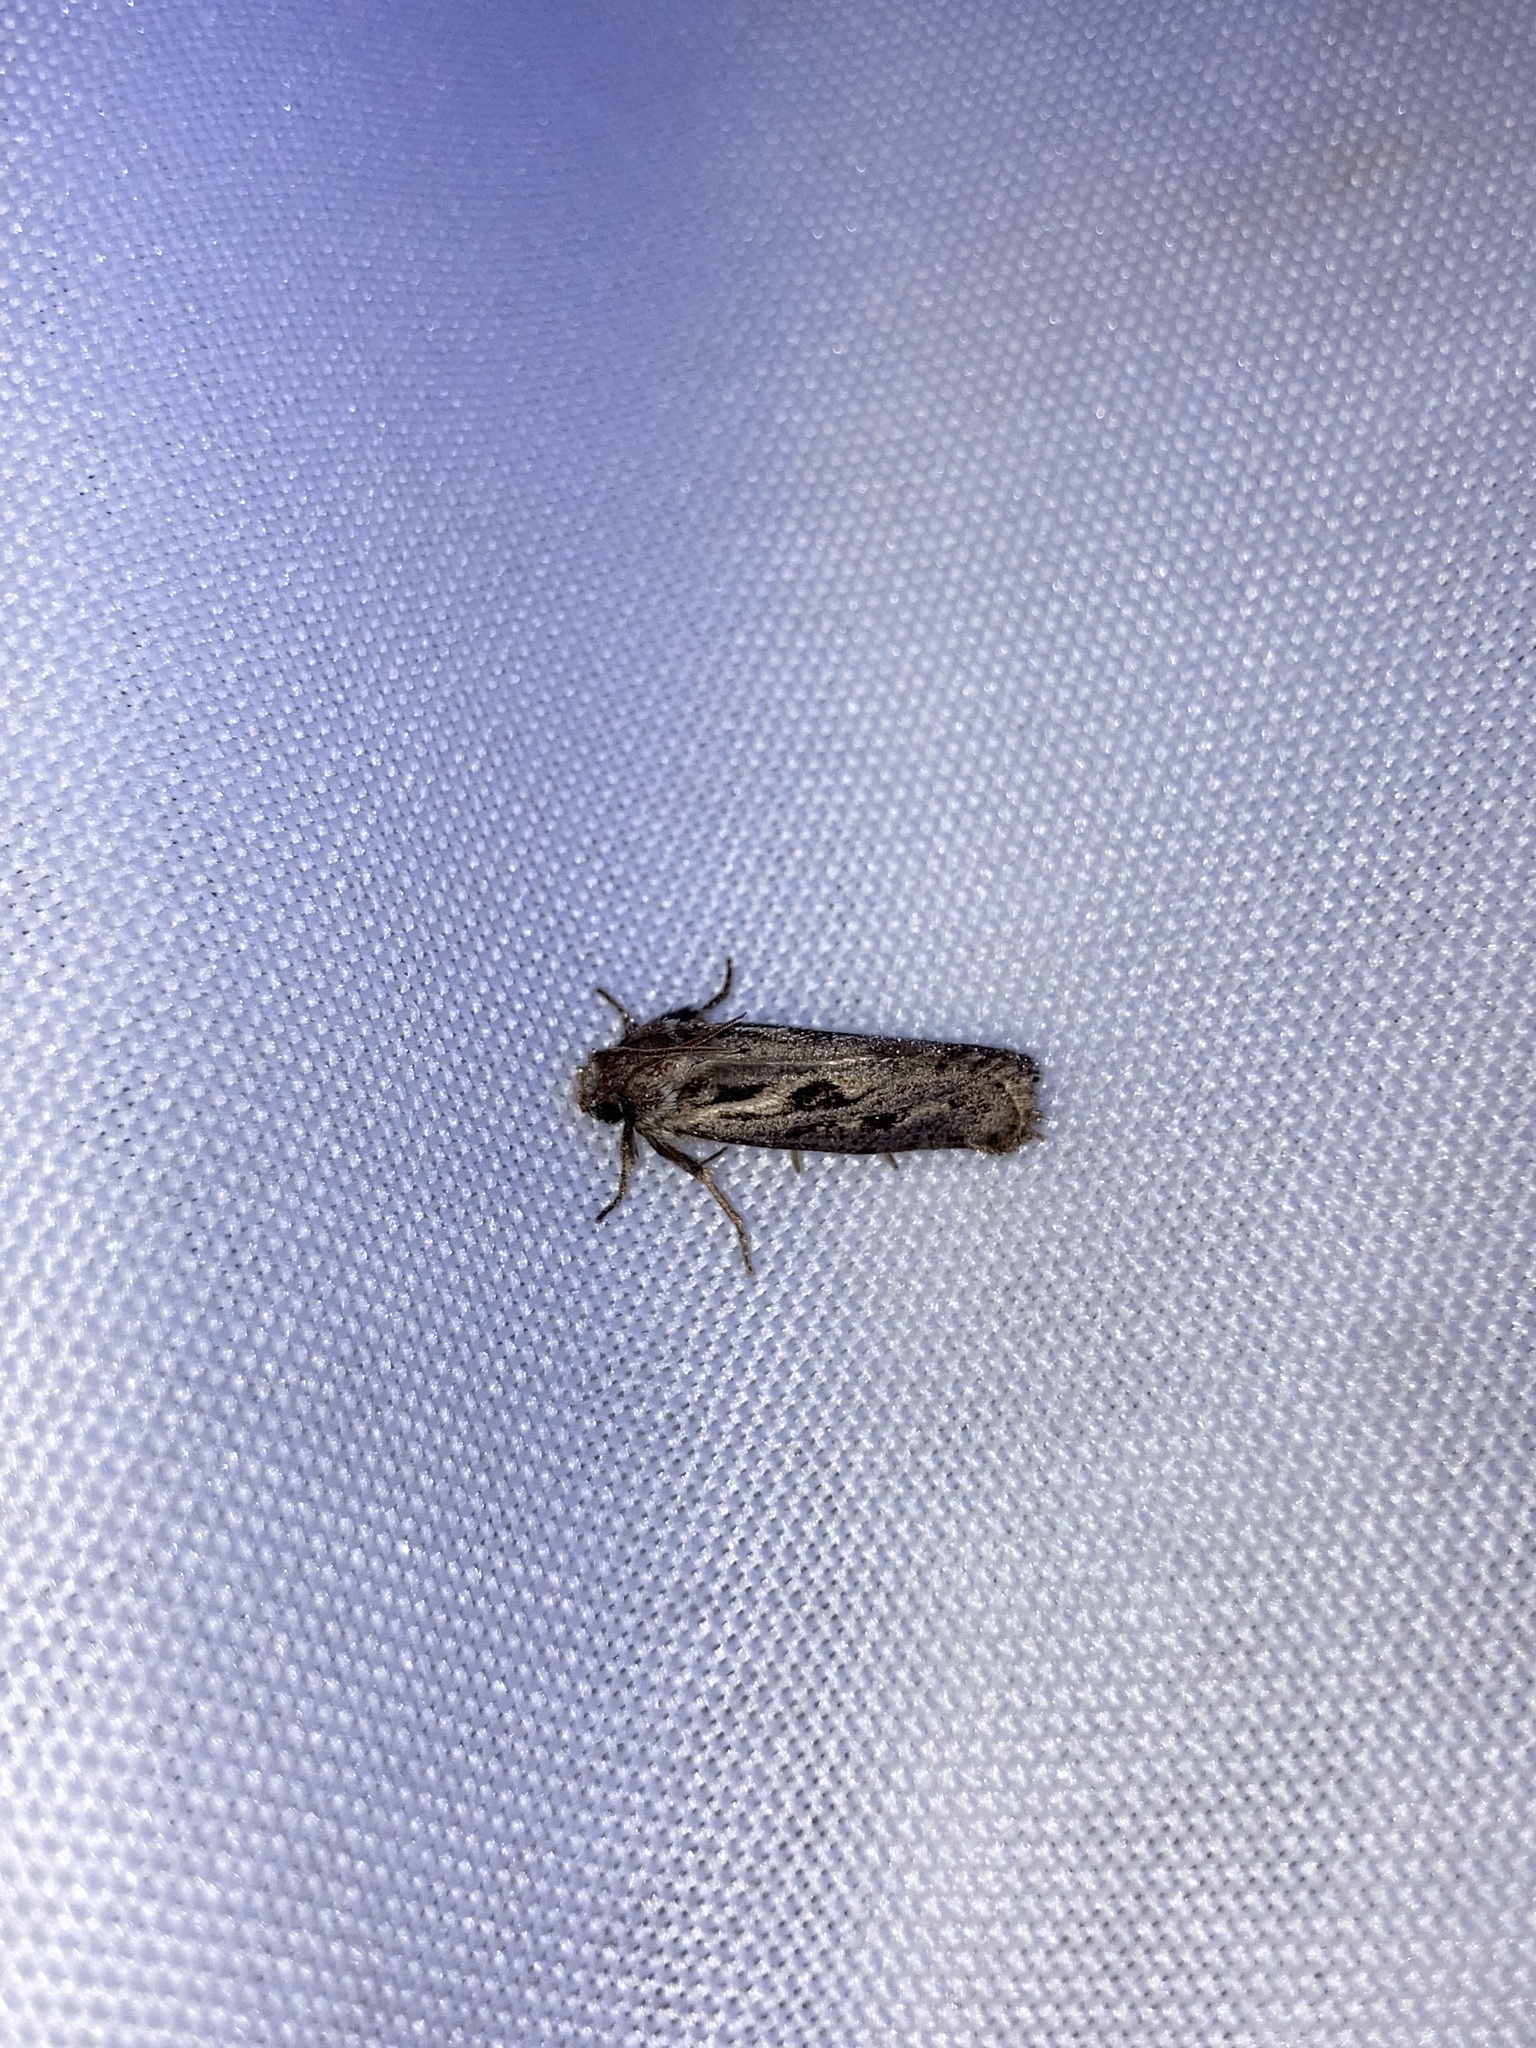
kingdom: Animalia
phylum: Arthropoda
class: Insecta
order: Lepidoptera
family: Tineidae
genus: Acrolophus
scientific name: Acrolophus popeanella
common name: Clemens' grass tubeworm moth
